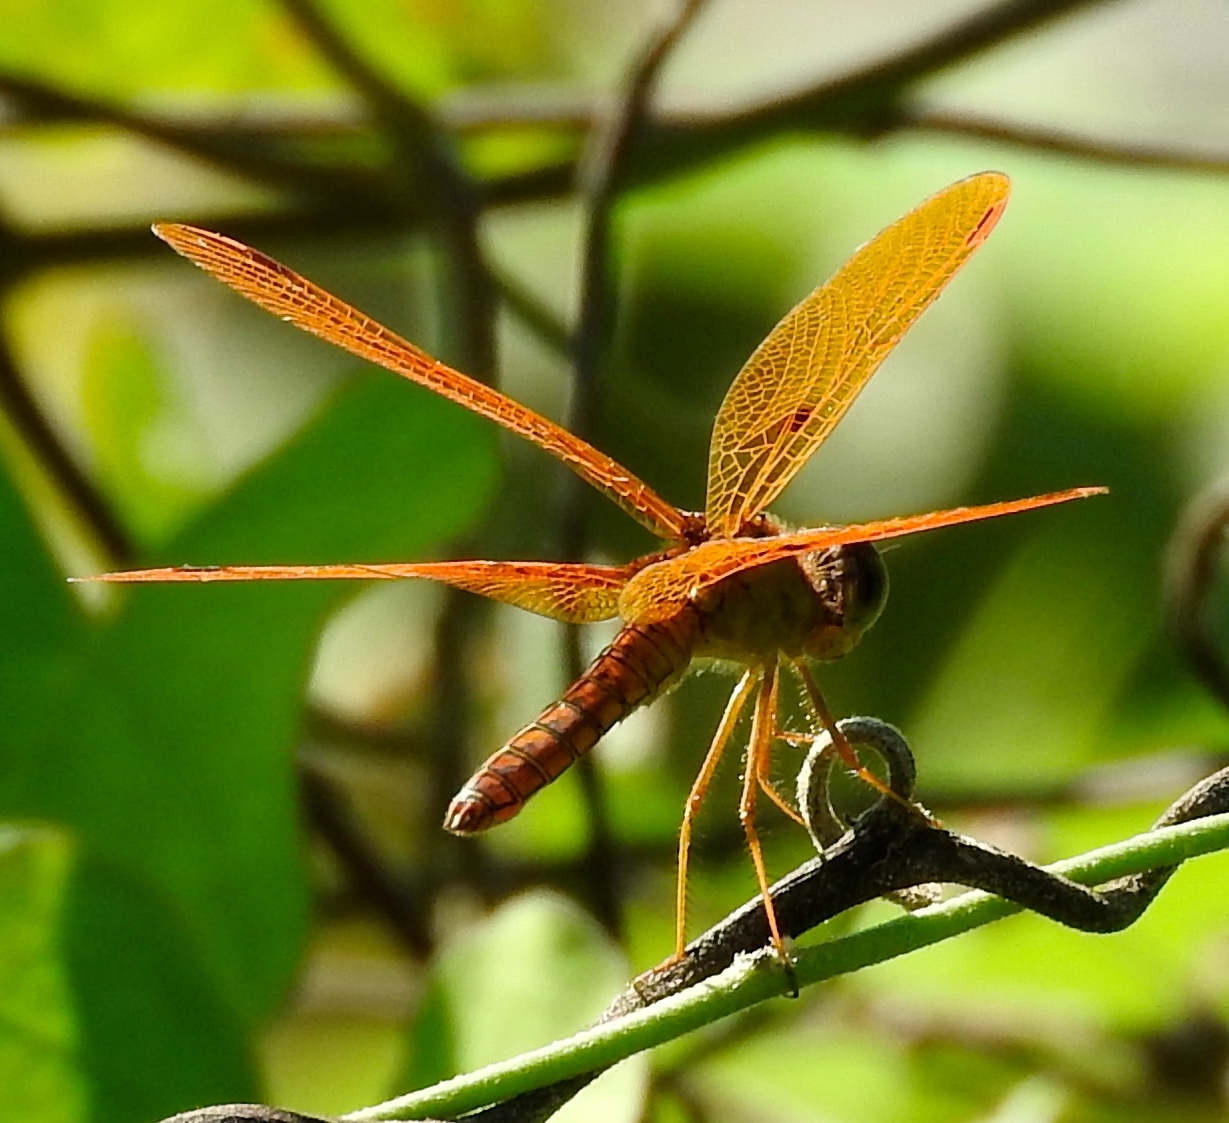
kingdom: Animalia
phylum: Arthropoda
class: Insecta
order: Odonata
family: Libellulidae
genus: Perithemis
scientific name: Perithemis
